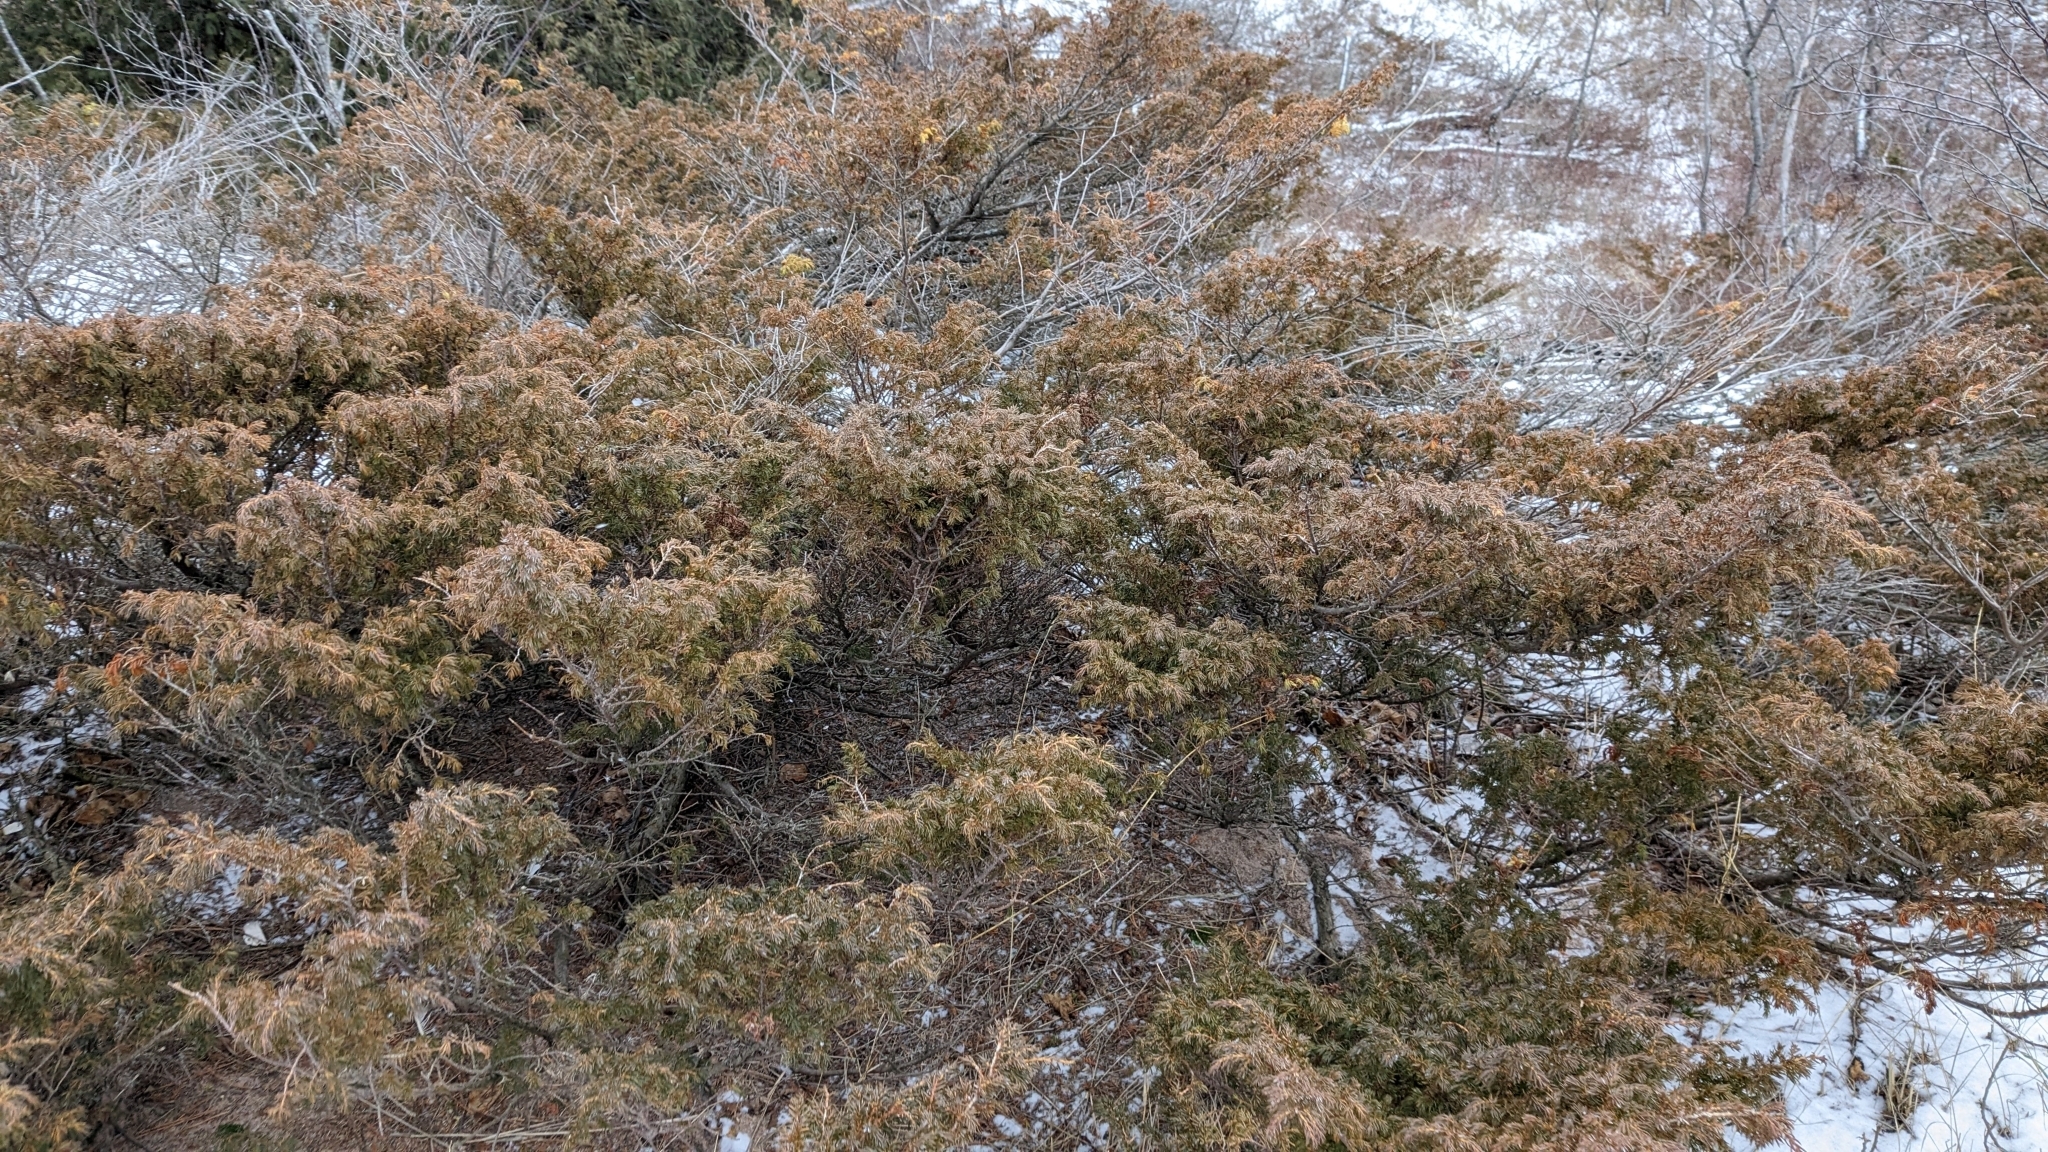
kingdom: Plantae
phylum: Tracheophyta
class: Pinopsida
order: Pinales
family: Cupressaceae
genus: Juniperus
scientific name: Juniperus communis
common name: Common juniper
